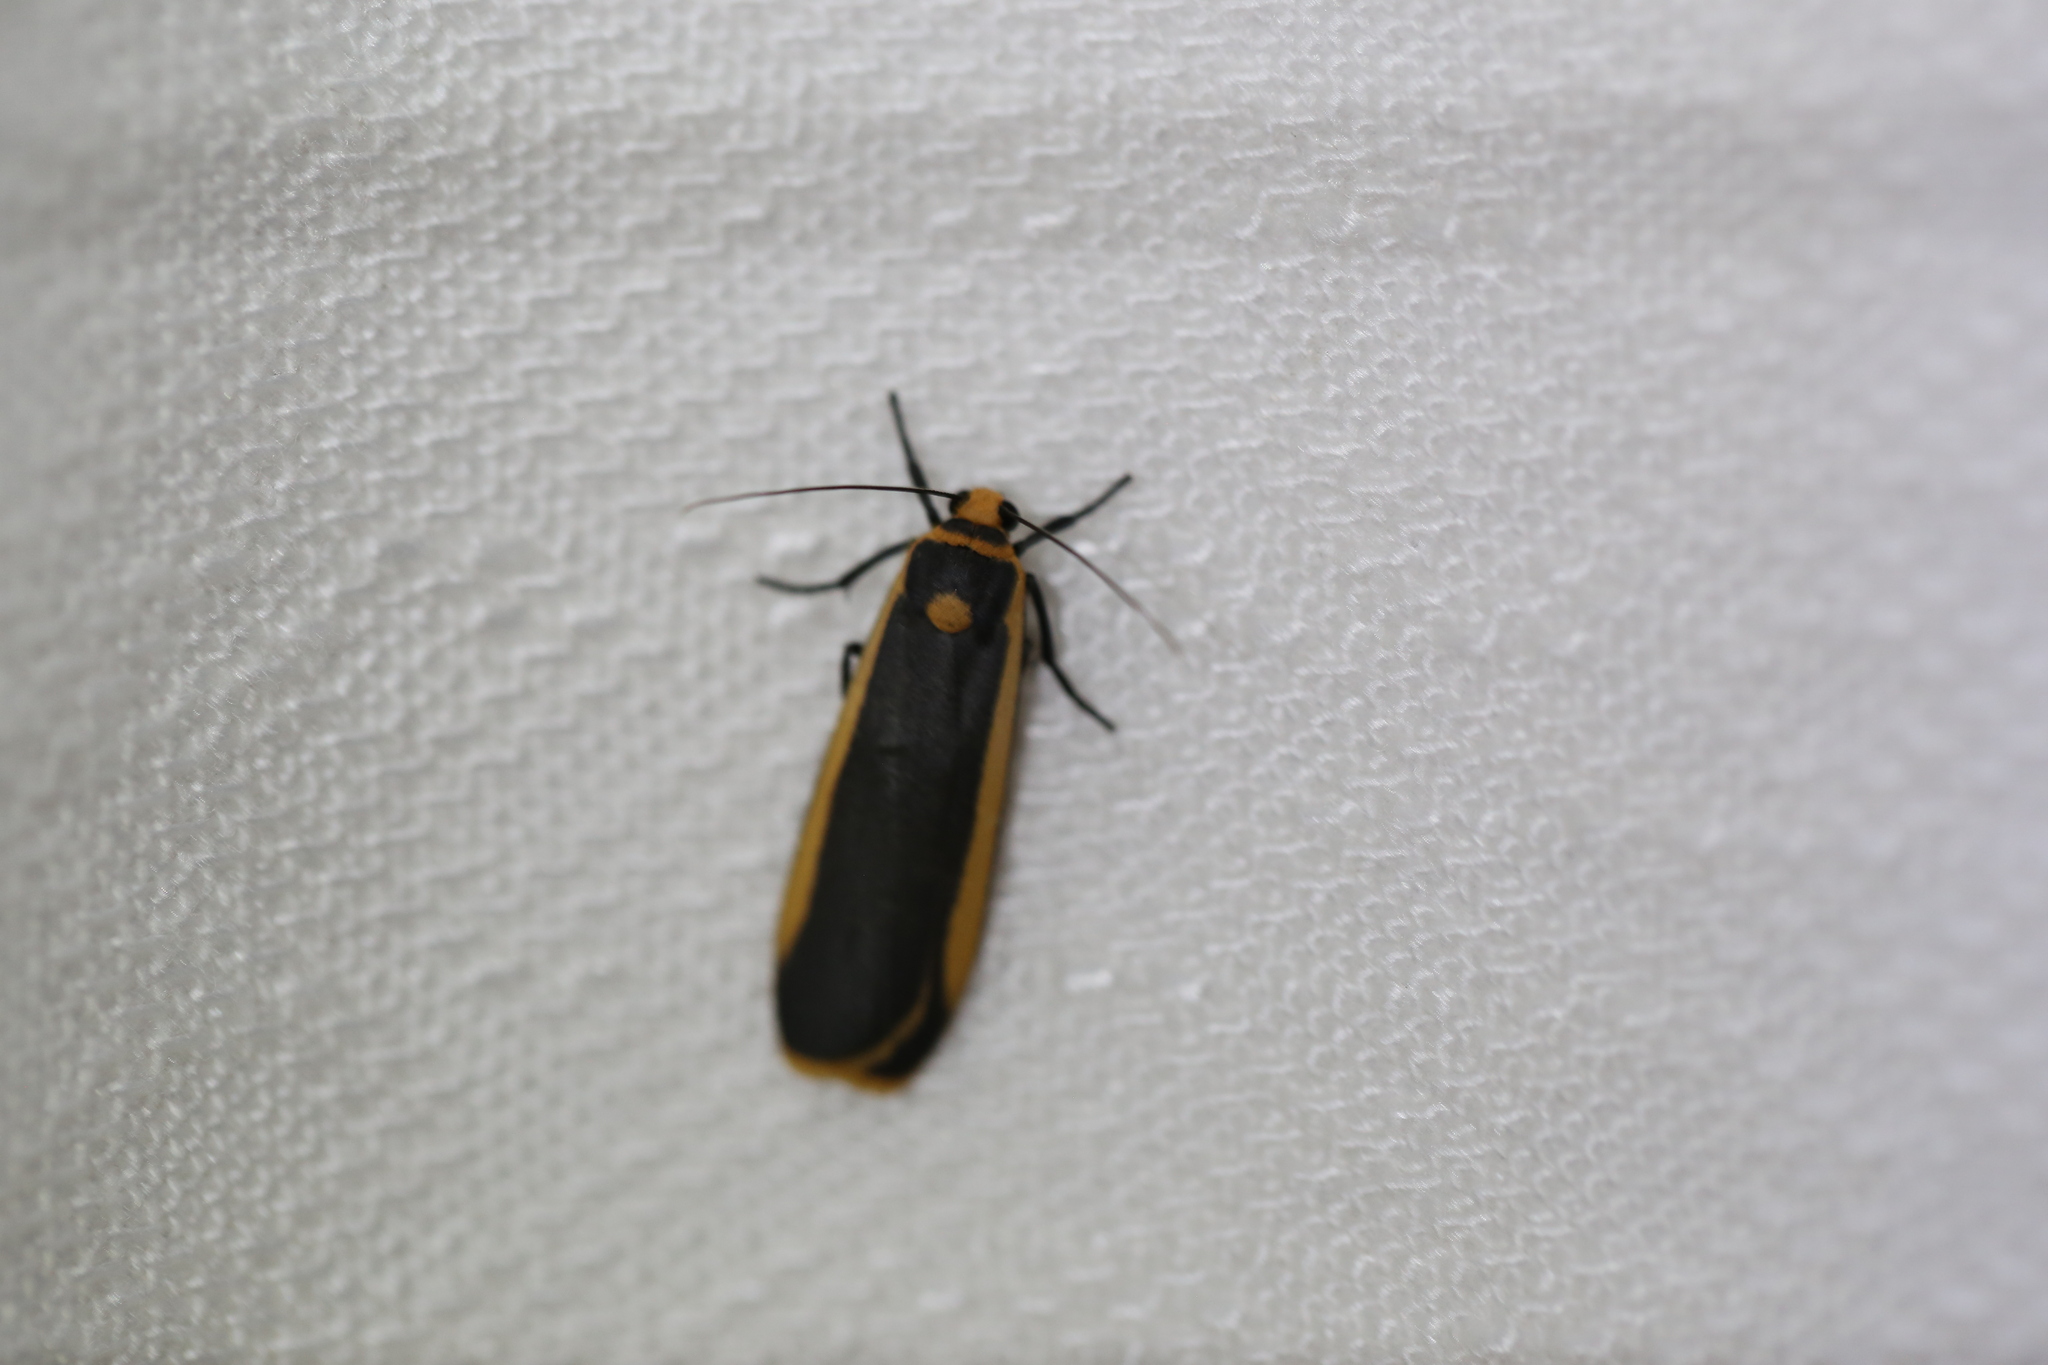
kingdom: Animalia
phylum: Arthropoda
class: Insecta
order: Lepidoptera
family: Erebidae
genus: Brunia
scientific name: Brunia replana
